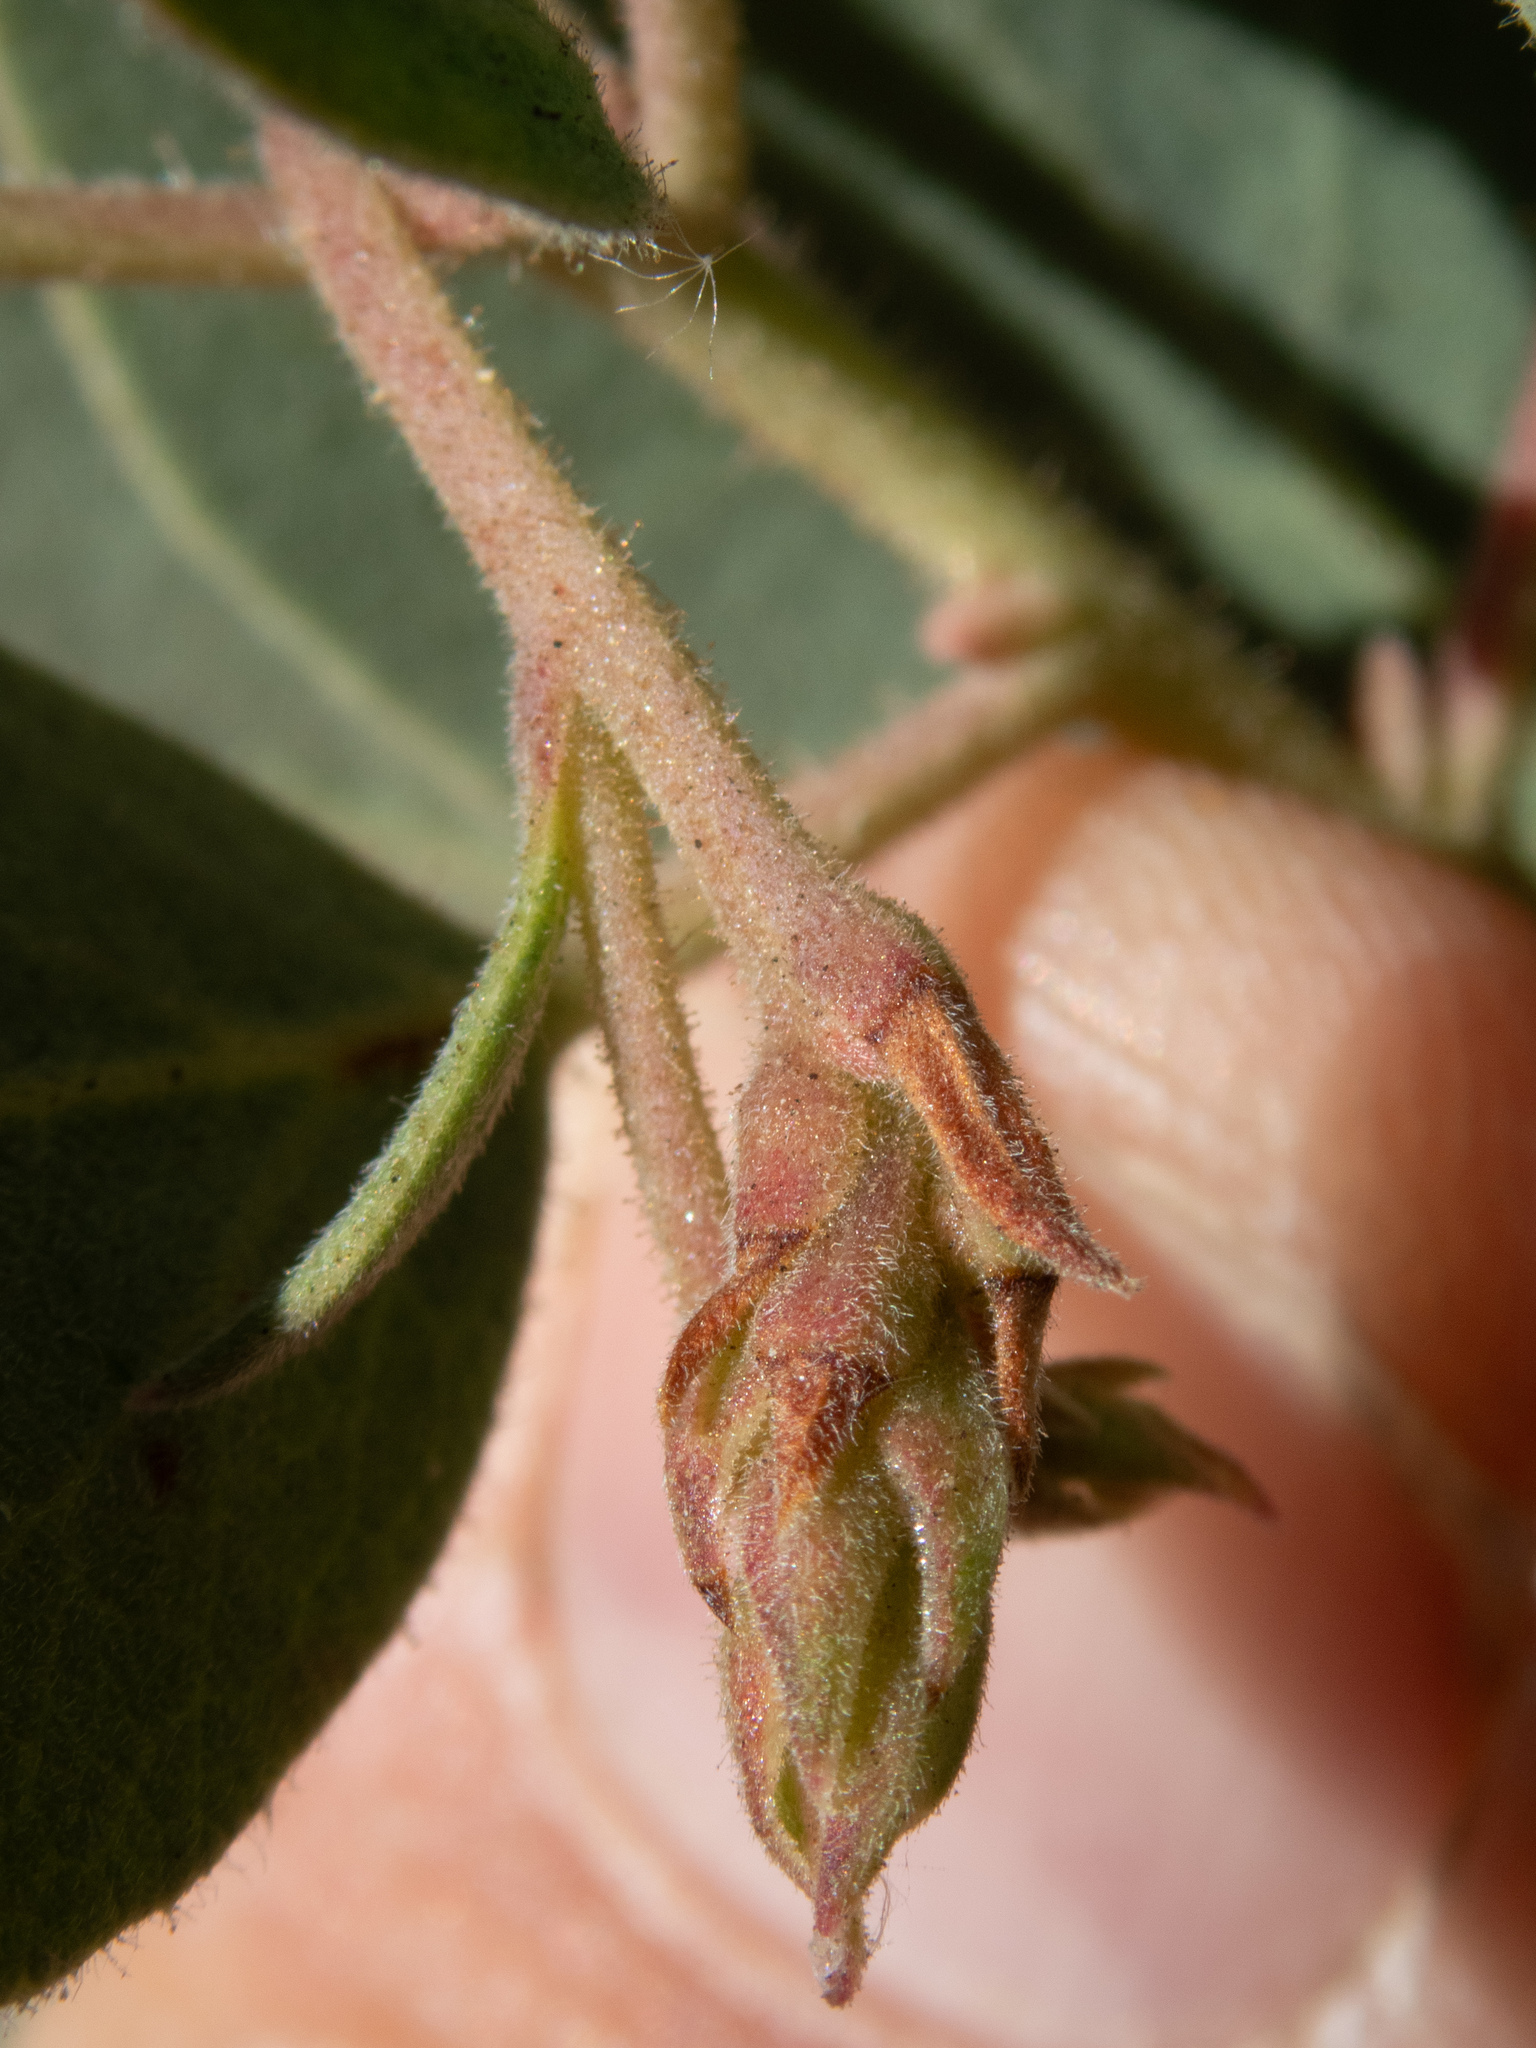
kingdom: Plantae
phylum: Tracheophyta
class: Magnoliopsida
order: Ericales
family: Ericaceae
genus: Arctostaphylos
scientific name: Arctostaphylos glandulosa
